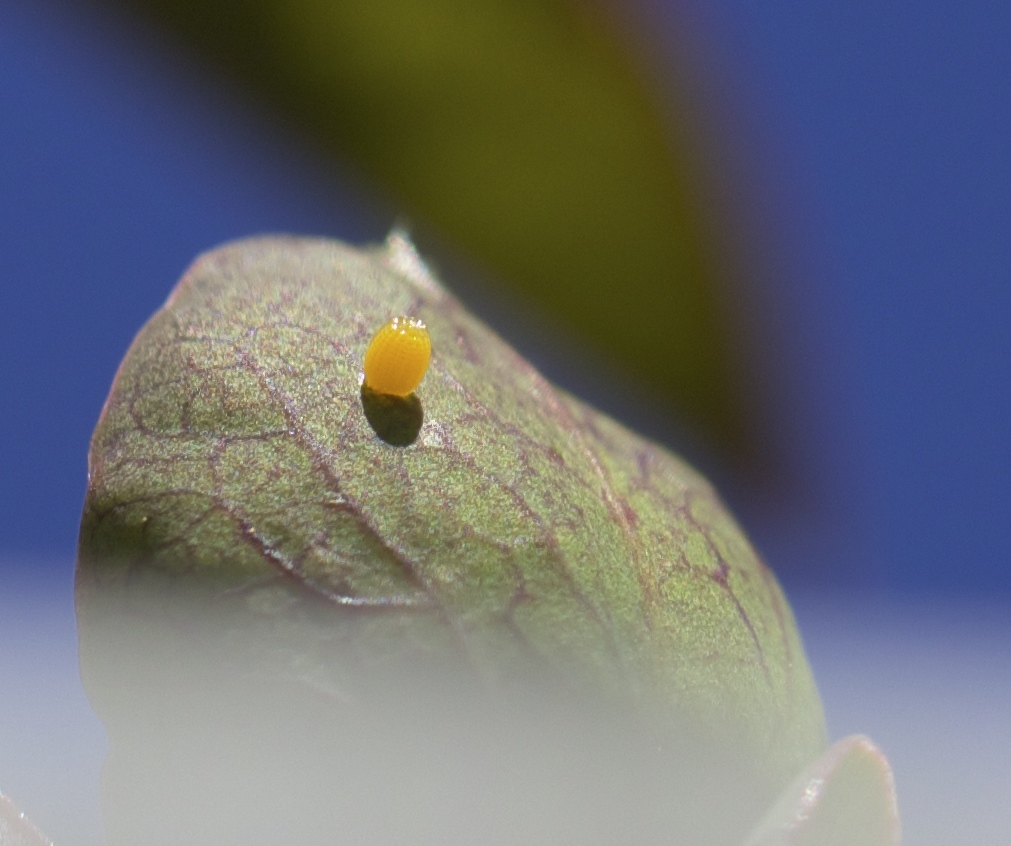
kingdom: Animalia
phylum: Arthropoda
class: Insecta
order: Lepidoptera
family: Nymphalidae
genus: Dione
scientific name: Dione vanillae
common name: Gulf fritillary
